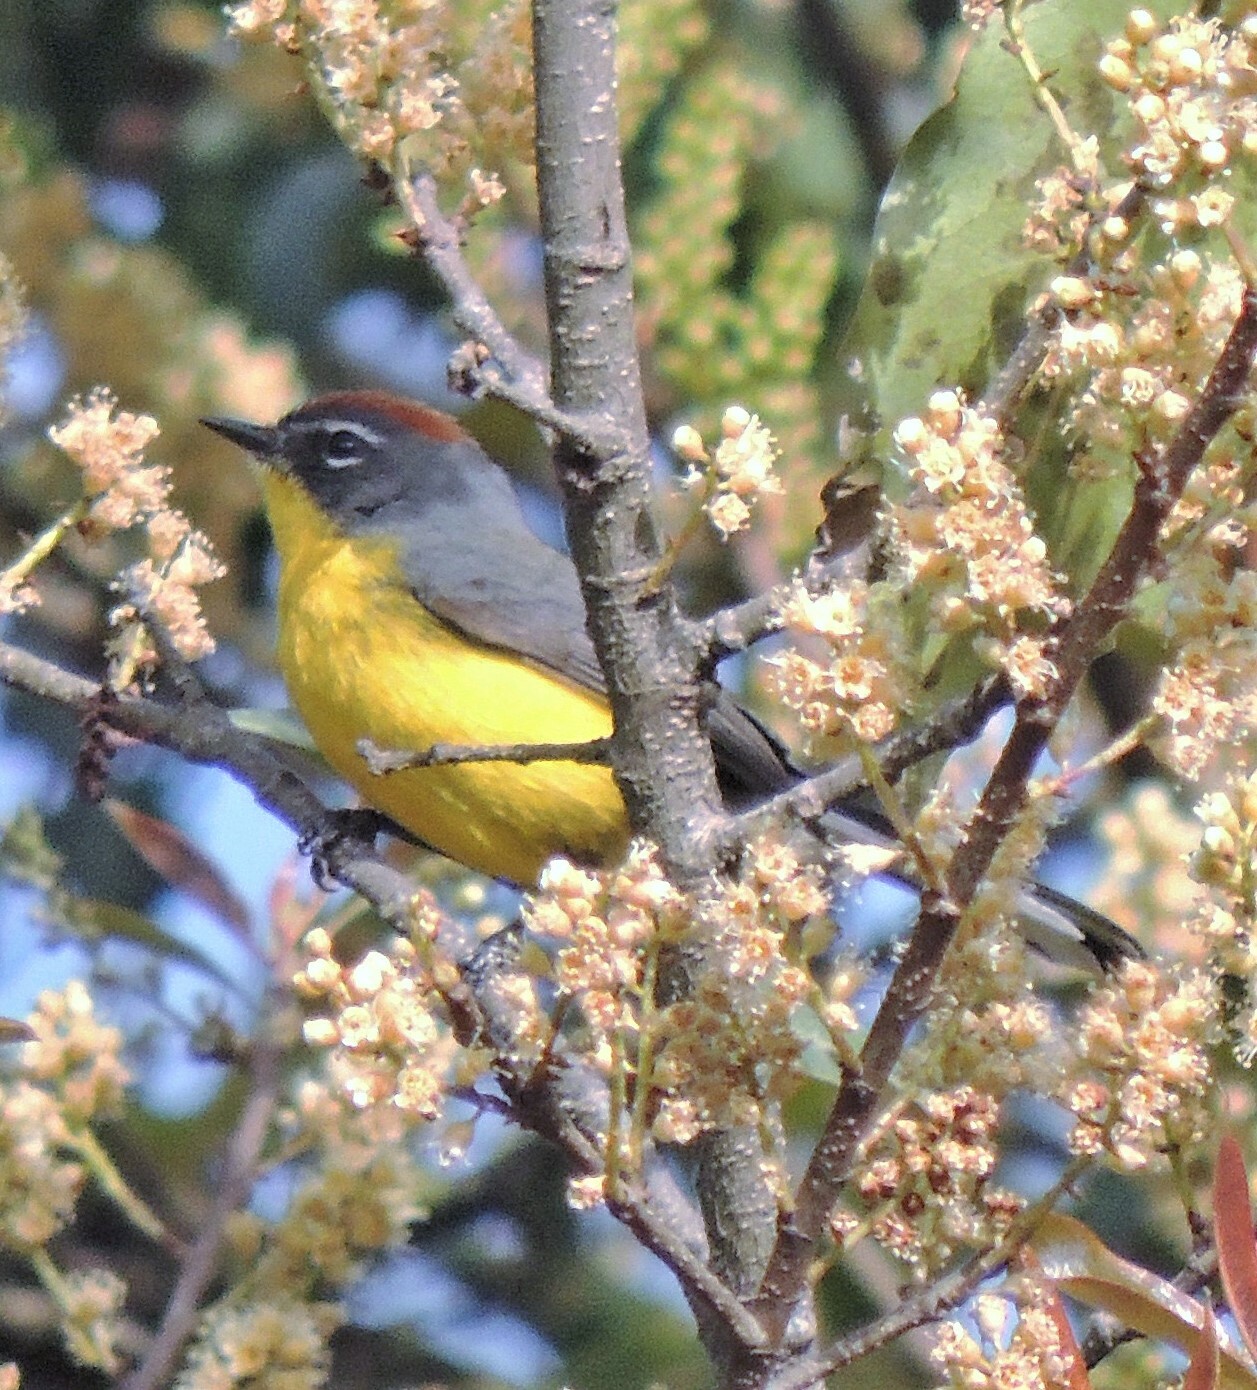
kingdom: Animalia
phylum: Chordata
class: Aves
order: Passeriformes
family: Parulidae
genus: Myioborus
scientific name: Myioborus brunniceps
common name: Brown-capped whitestart
